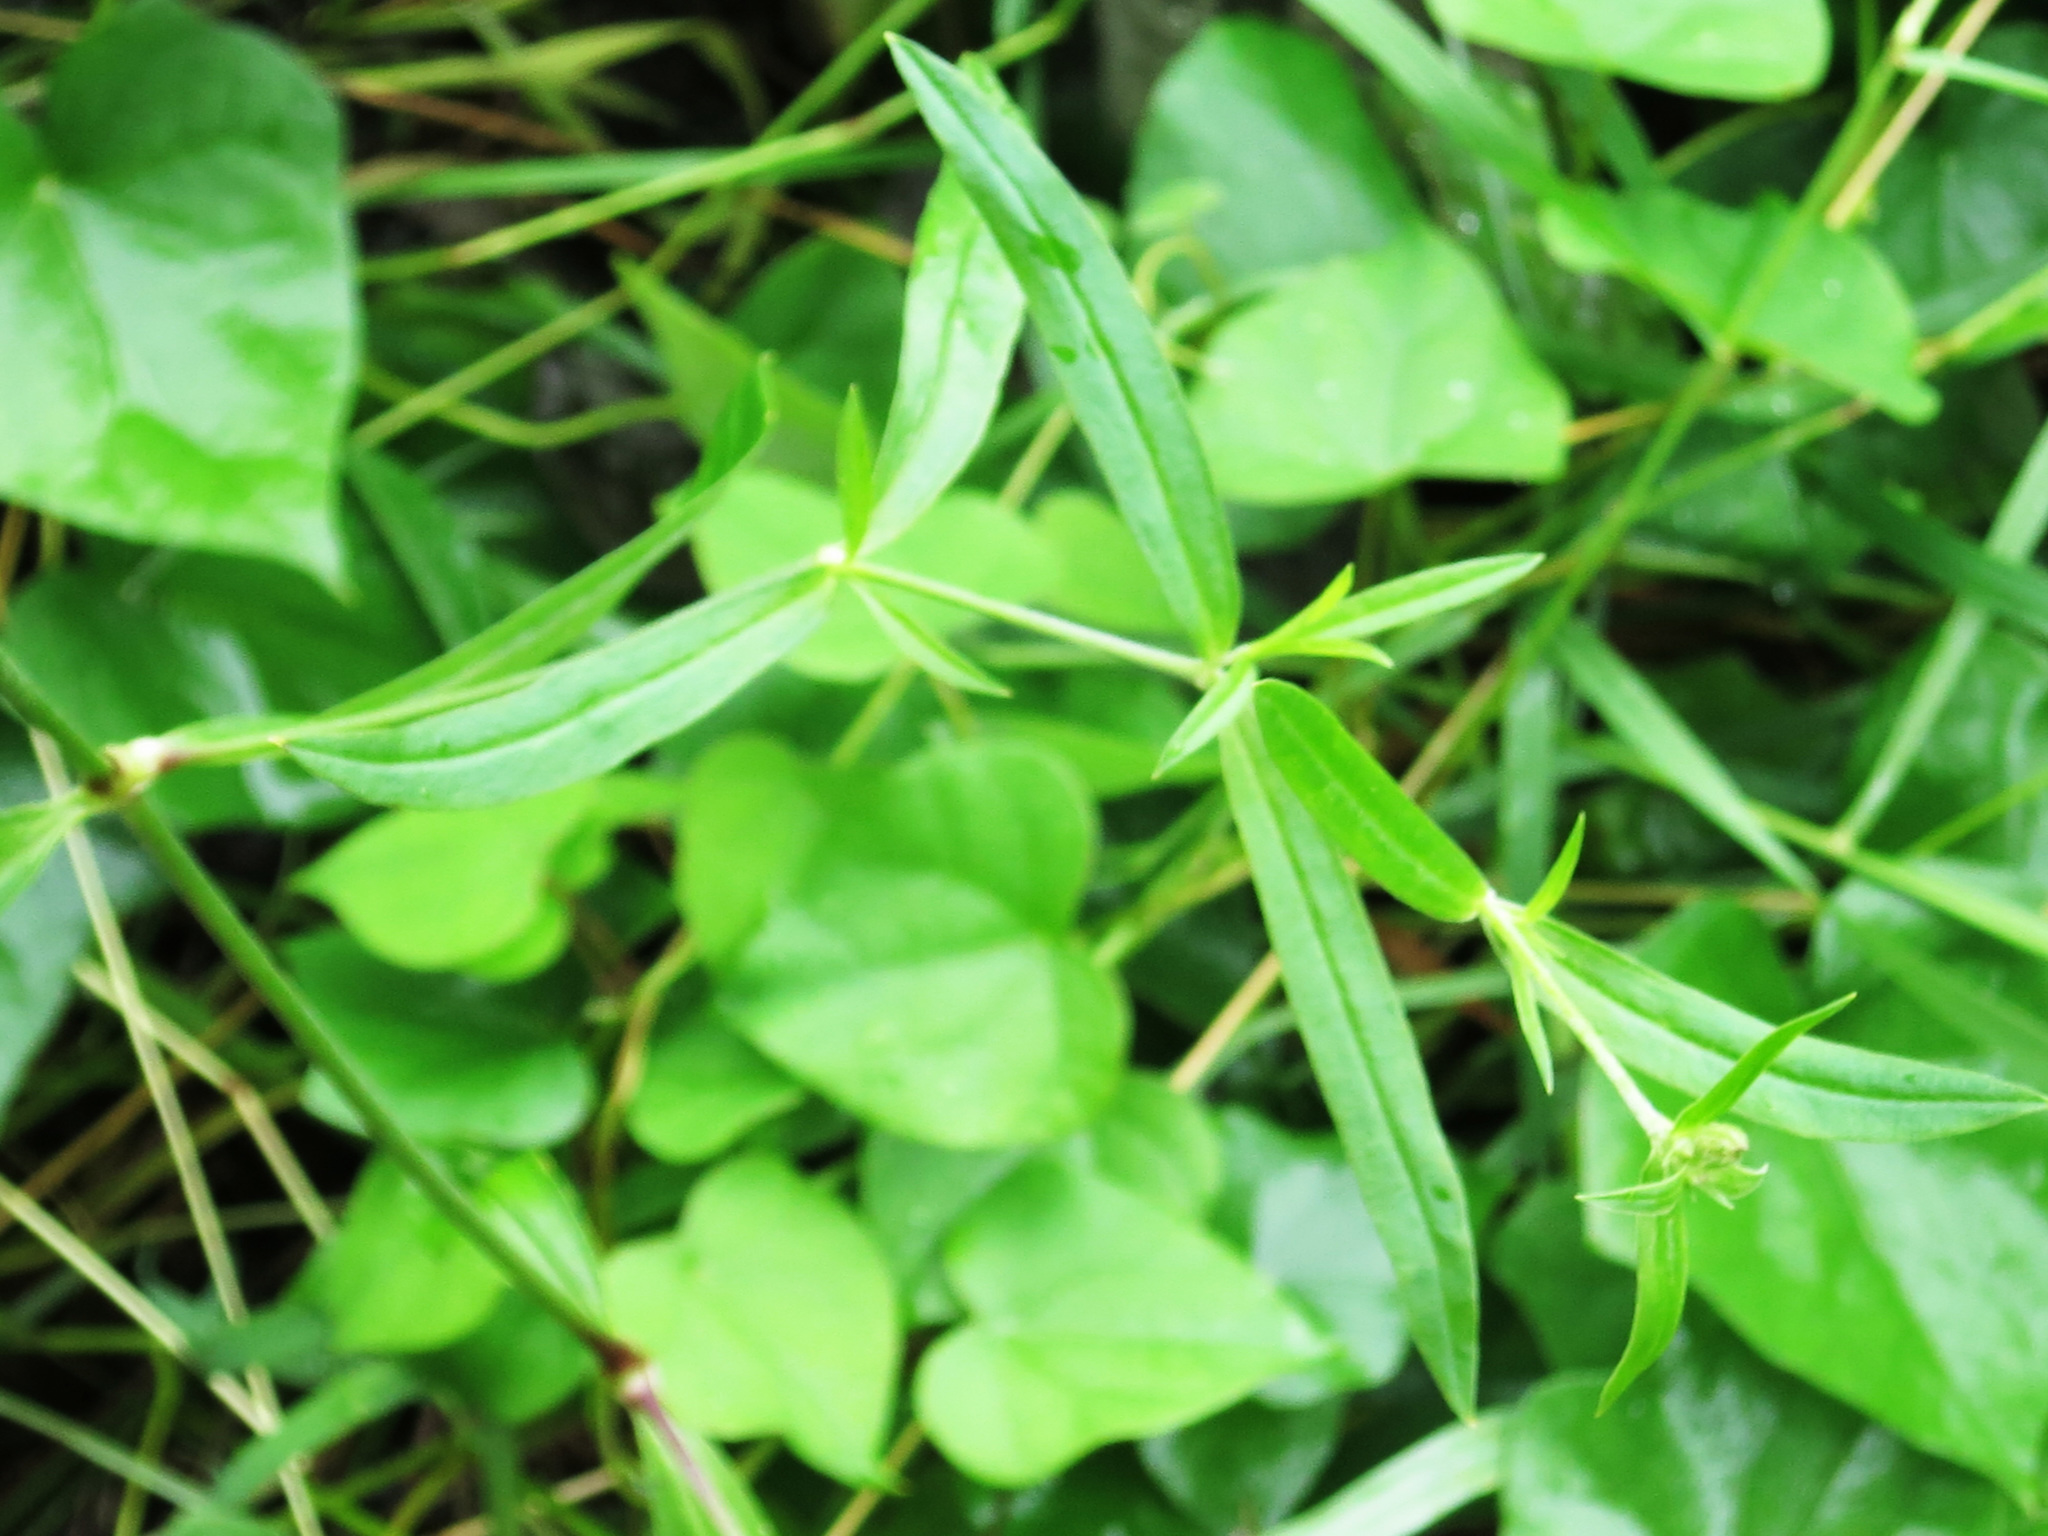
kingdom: Plantae
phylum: Tracheophyta
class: Magnoliopsida
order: Caryophyllales
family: Caryophyllaceae
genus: Silene
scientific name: Silene repens
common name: Pink campion
